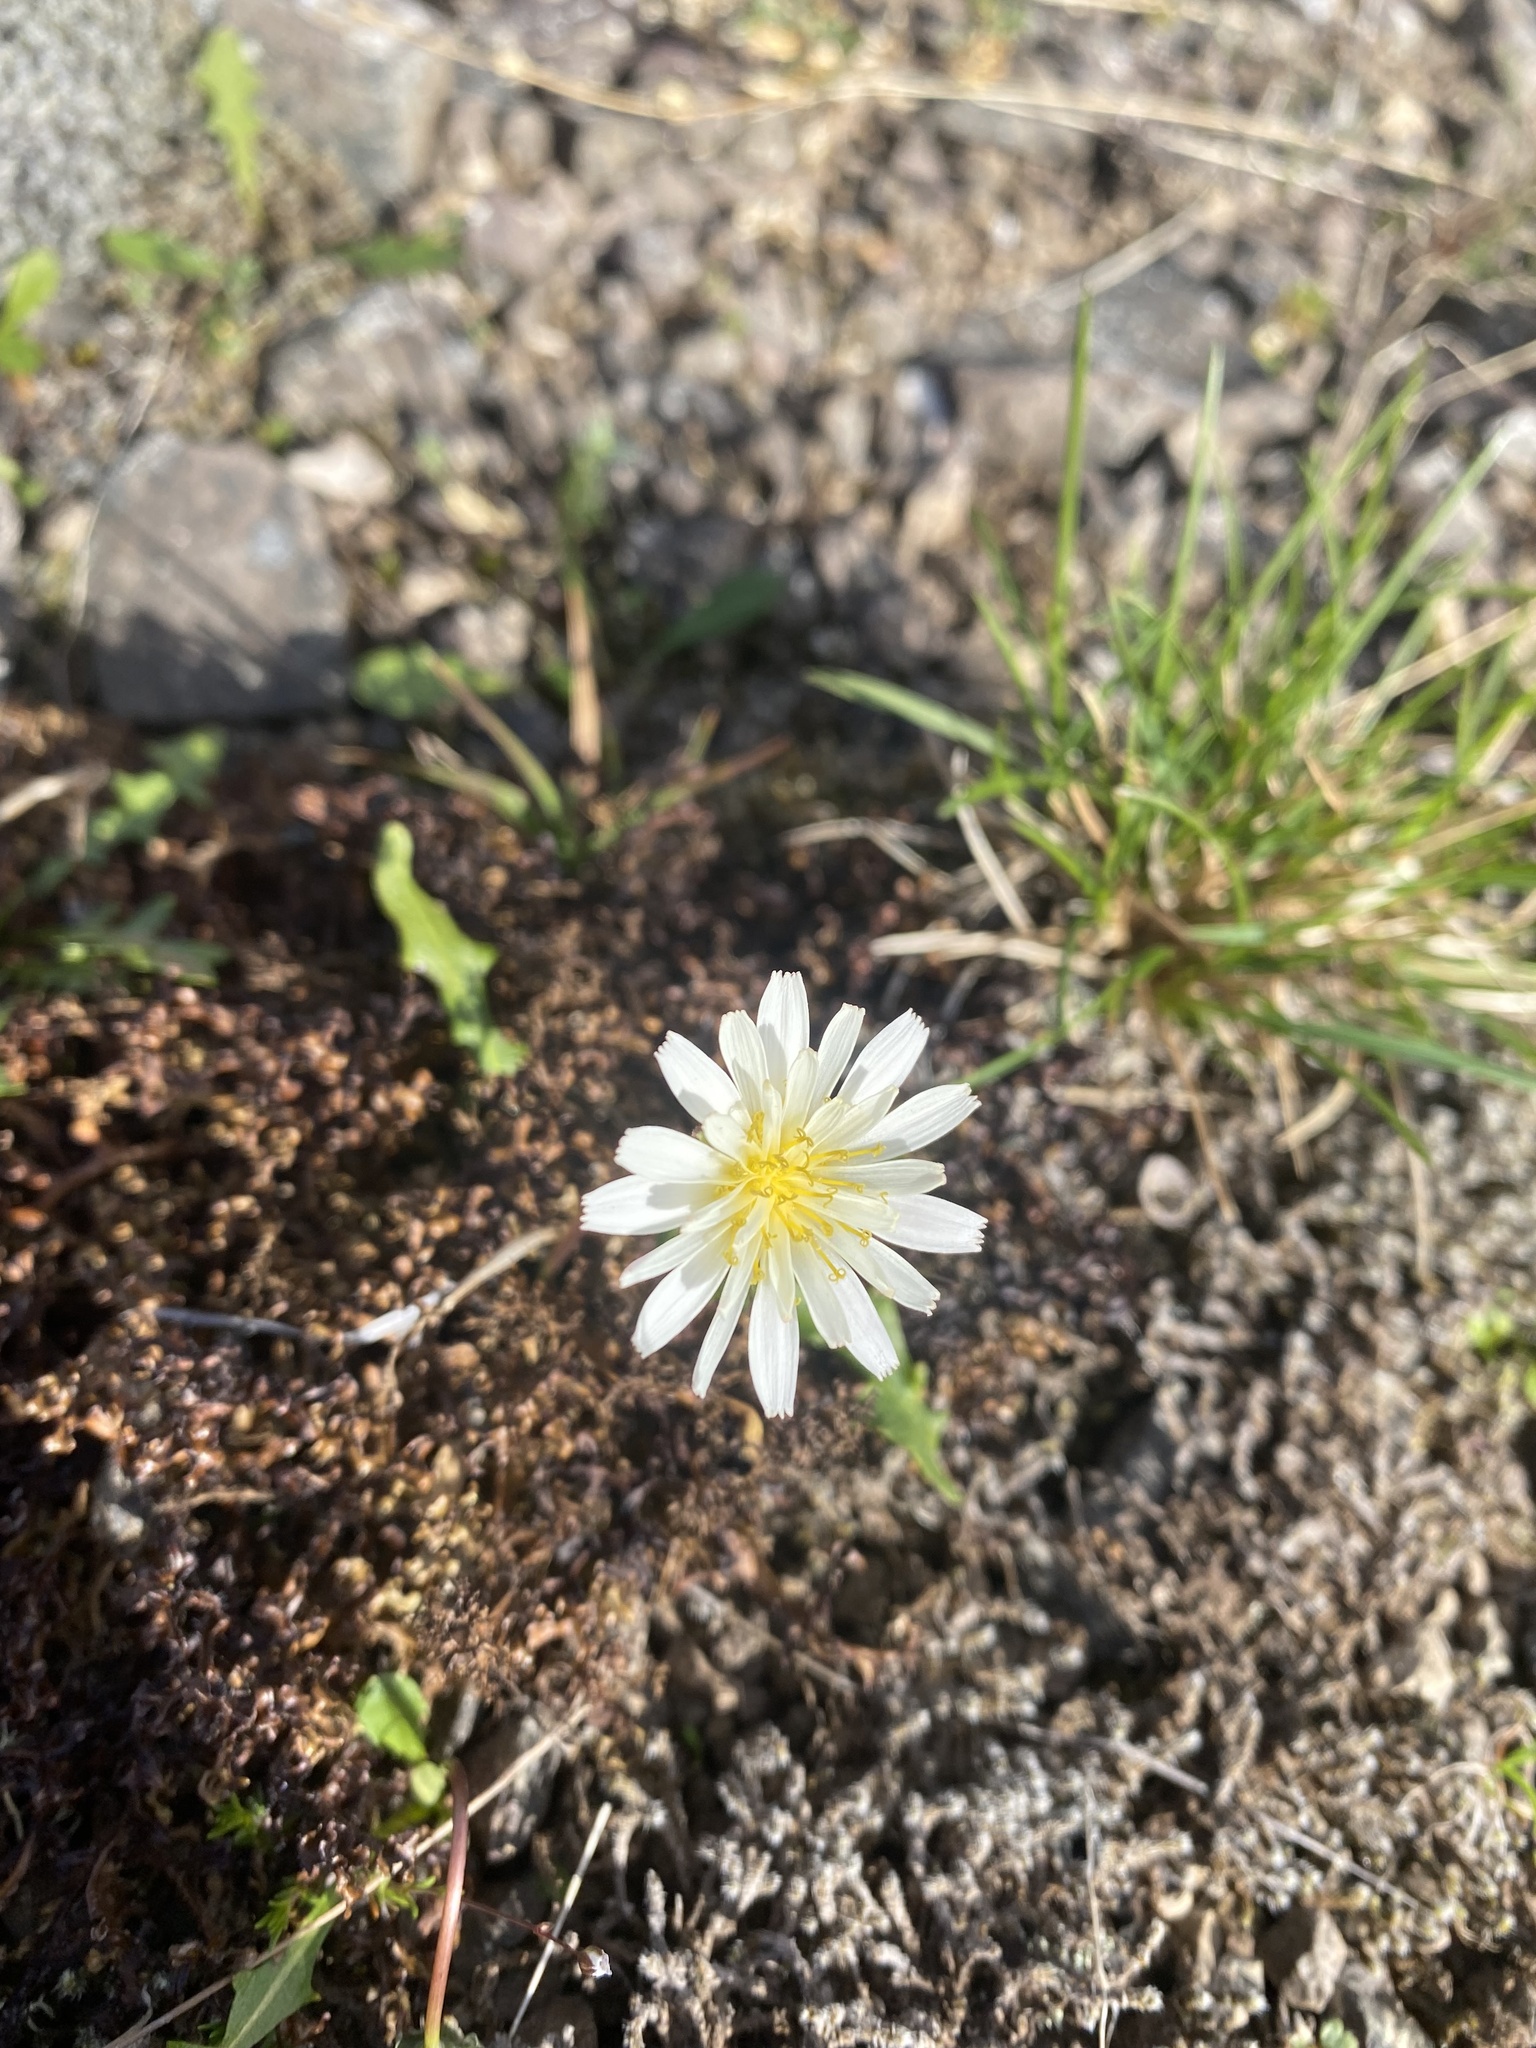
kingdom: Plantae
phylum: Tracheophyta
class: Magnoliopsida
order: Asterales
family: Asteraceae
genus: Taraxacum
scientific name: Taraxacum arcticum
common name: Arctic dandelion
